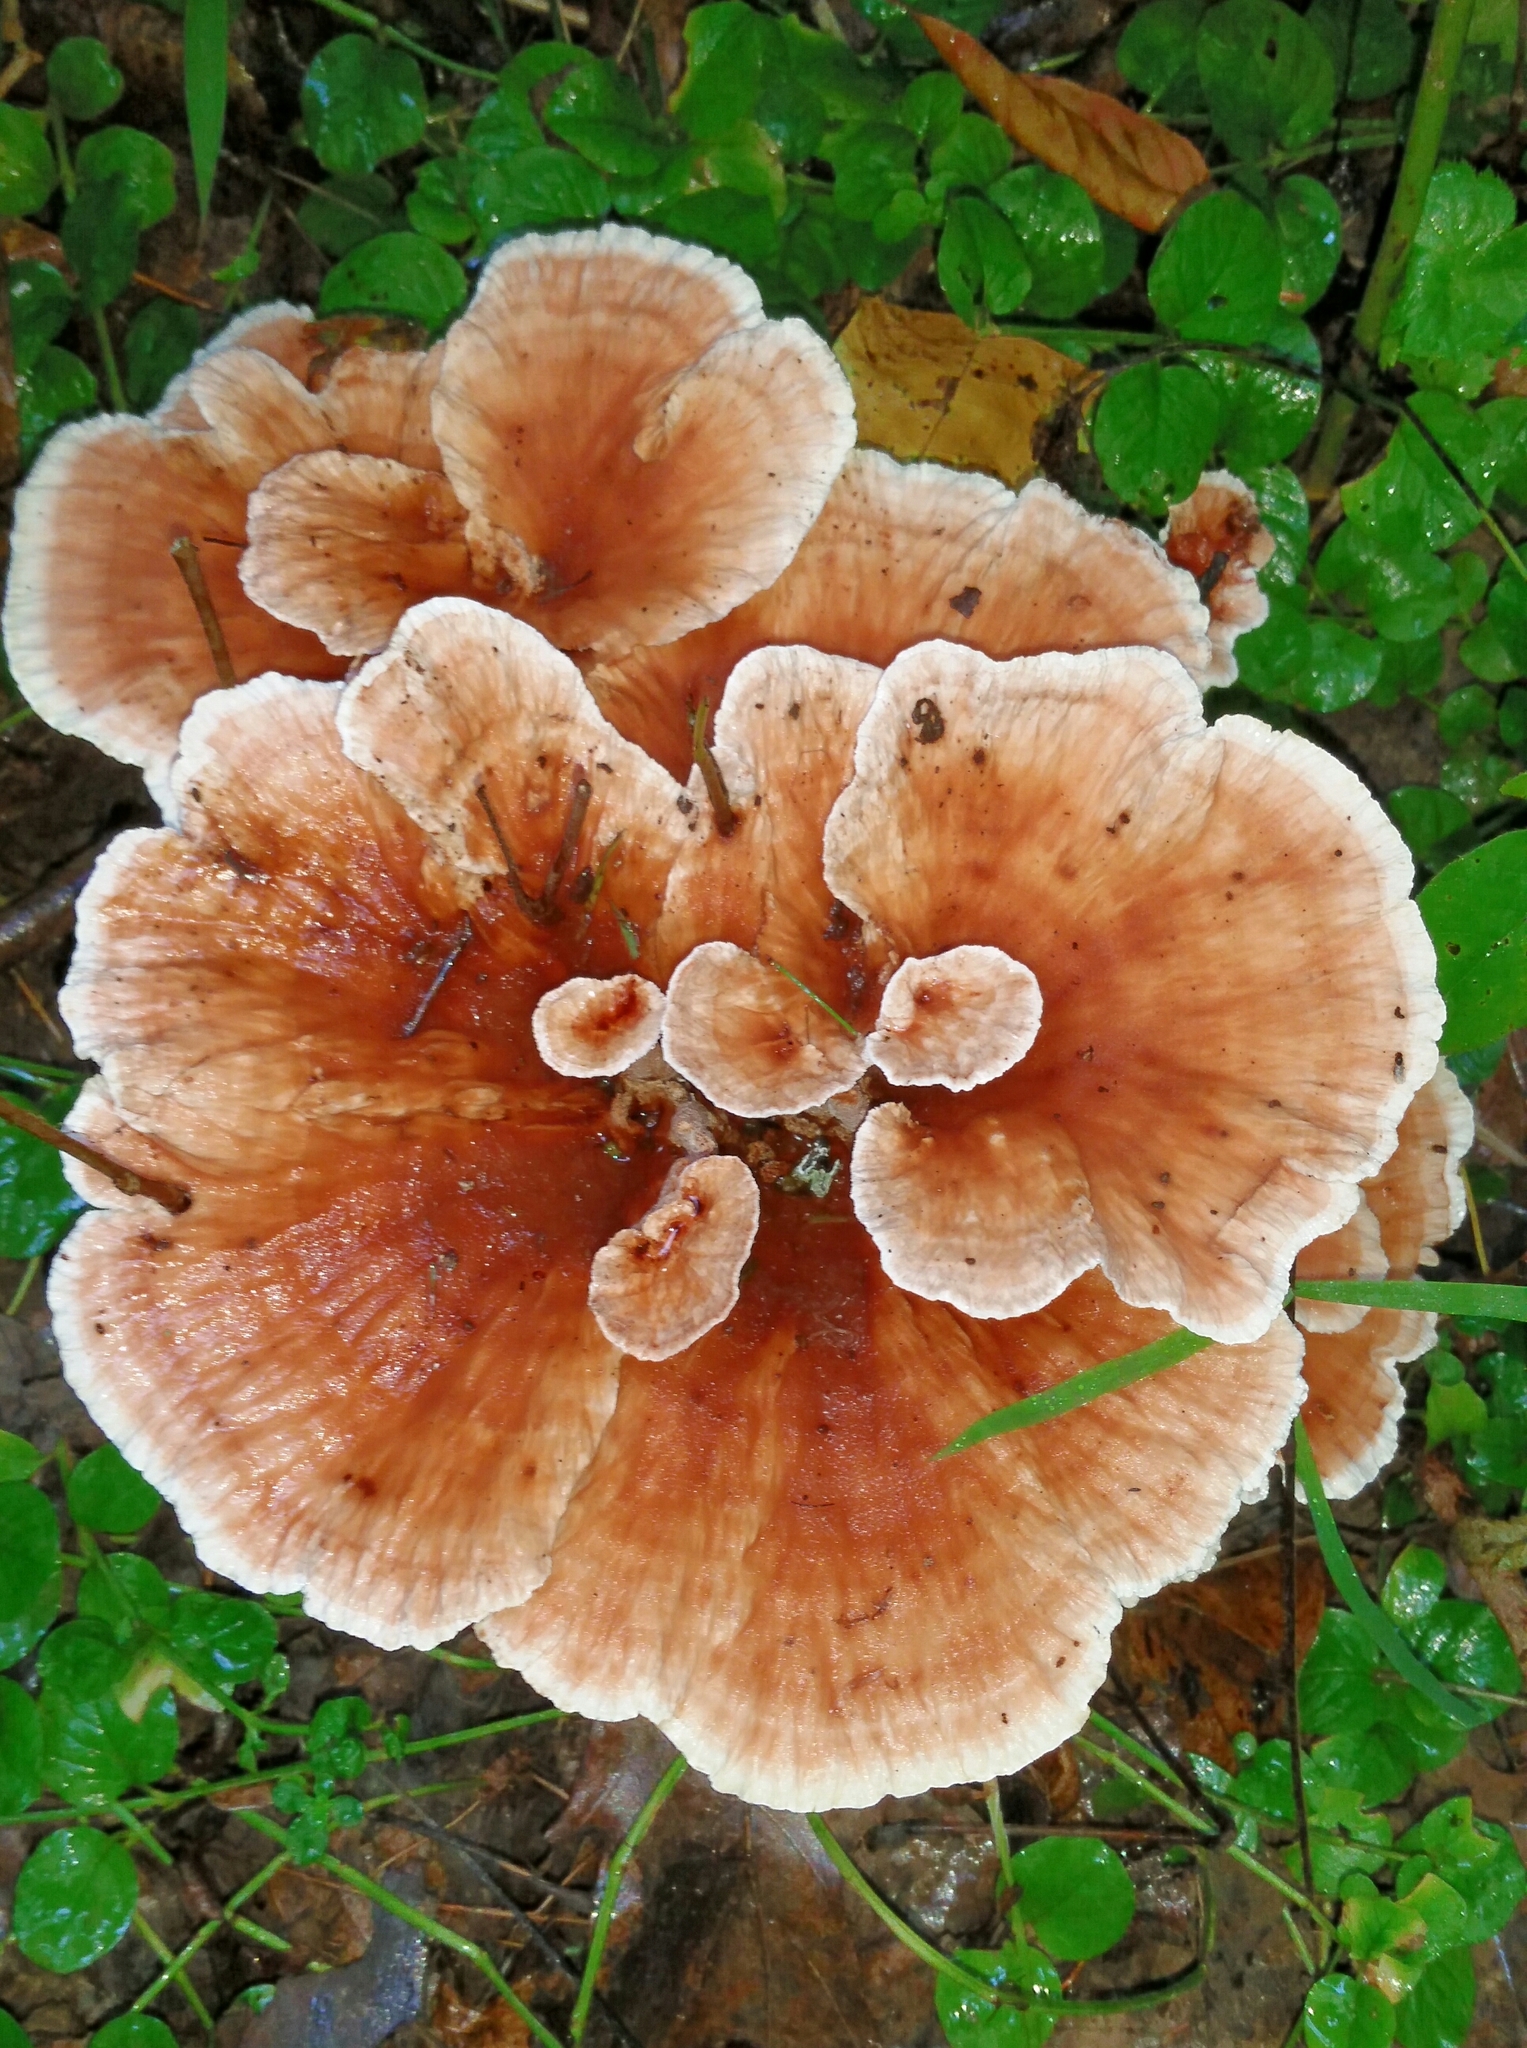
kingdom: Fungi
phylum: Basidiomycota
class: Agaricomycetes
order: Polyporales
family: Podoscyphaceae
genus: Abortiporus
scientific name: Abortiporus biennis
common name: Blushing rosette
